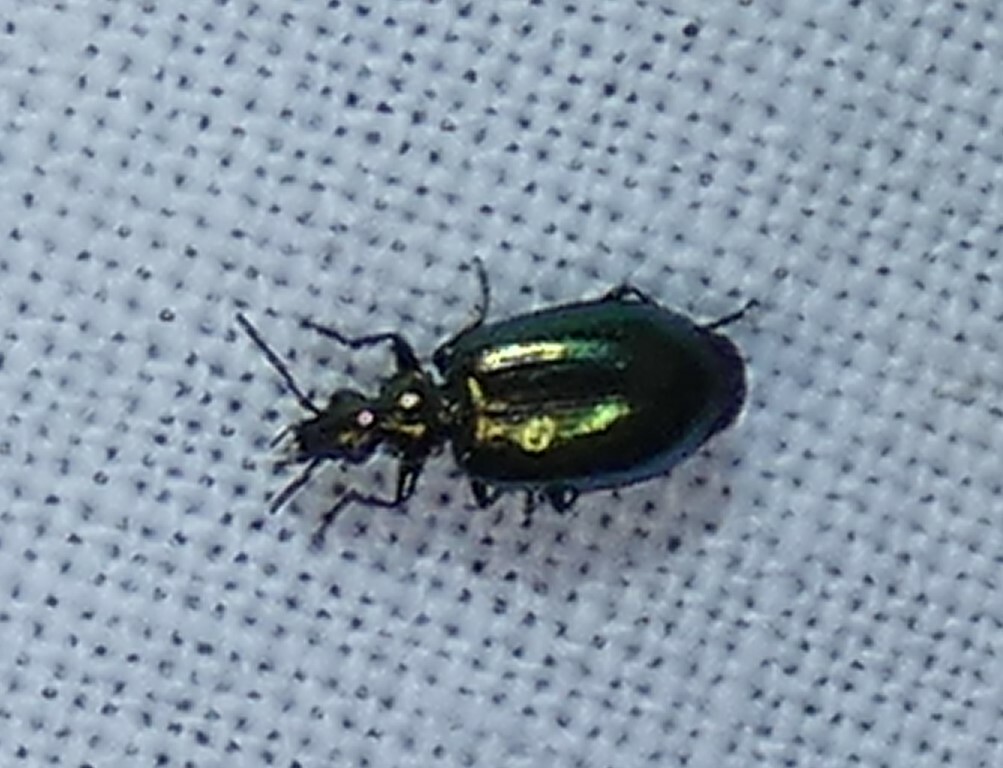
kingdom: Animalia
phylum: Arthropoda
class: Insecta
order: Coleoptera
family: Carabidae
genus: Lebia
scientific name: Lebia viridis
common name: Flower lebia beetle
